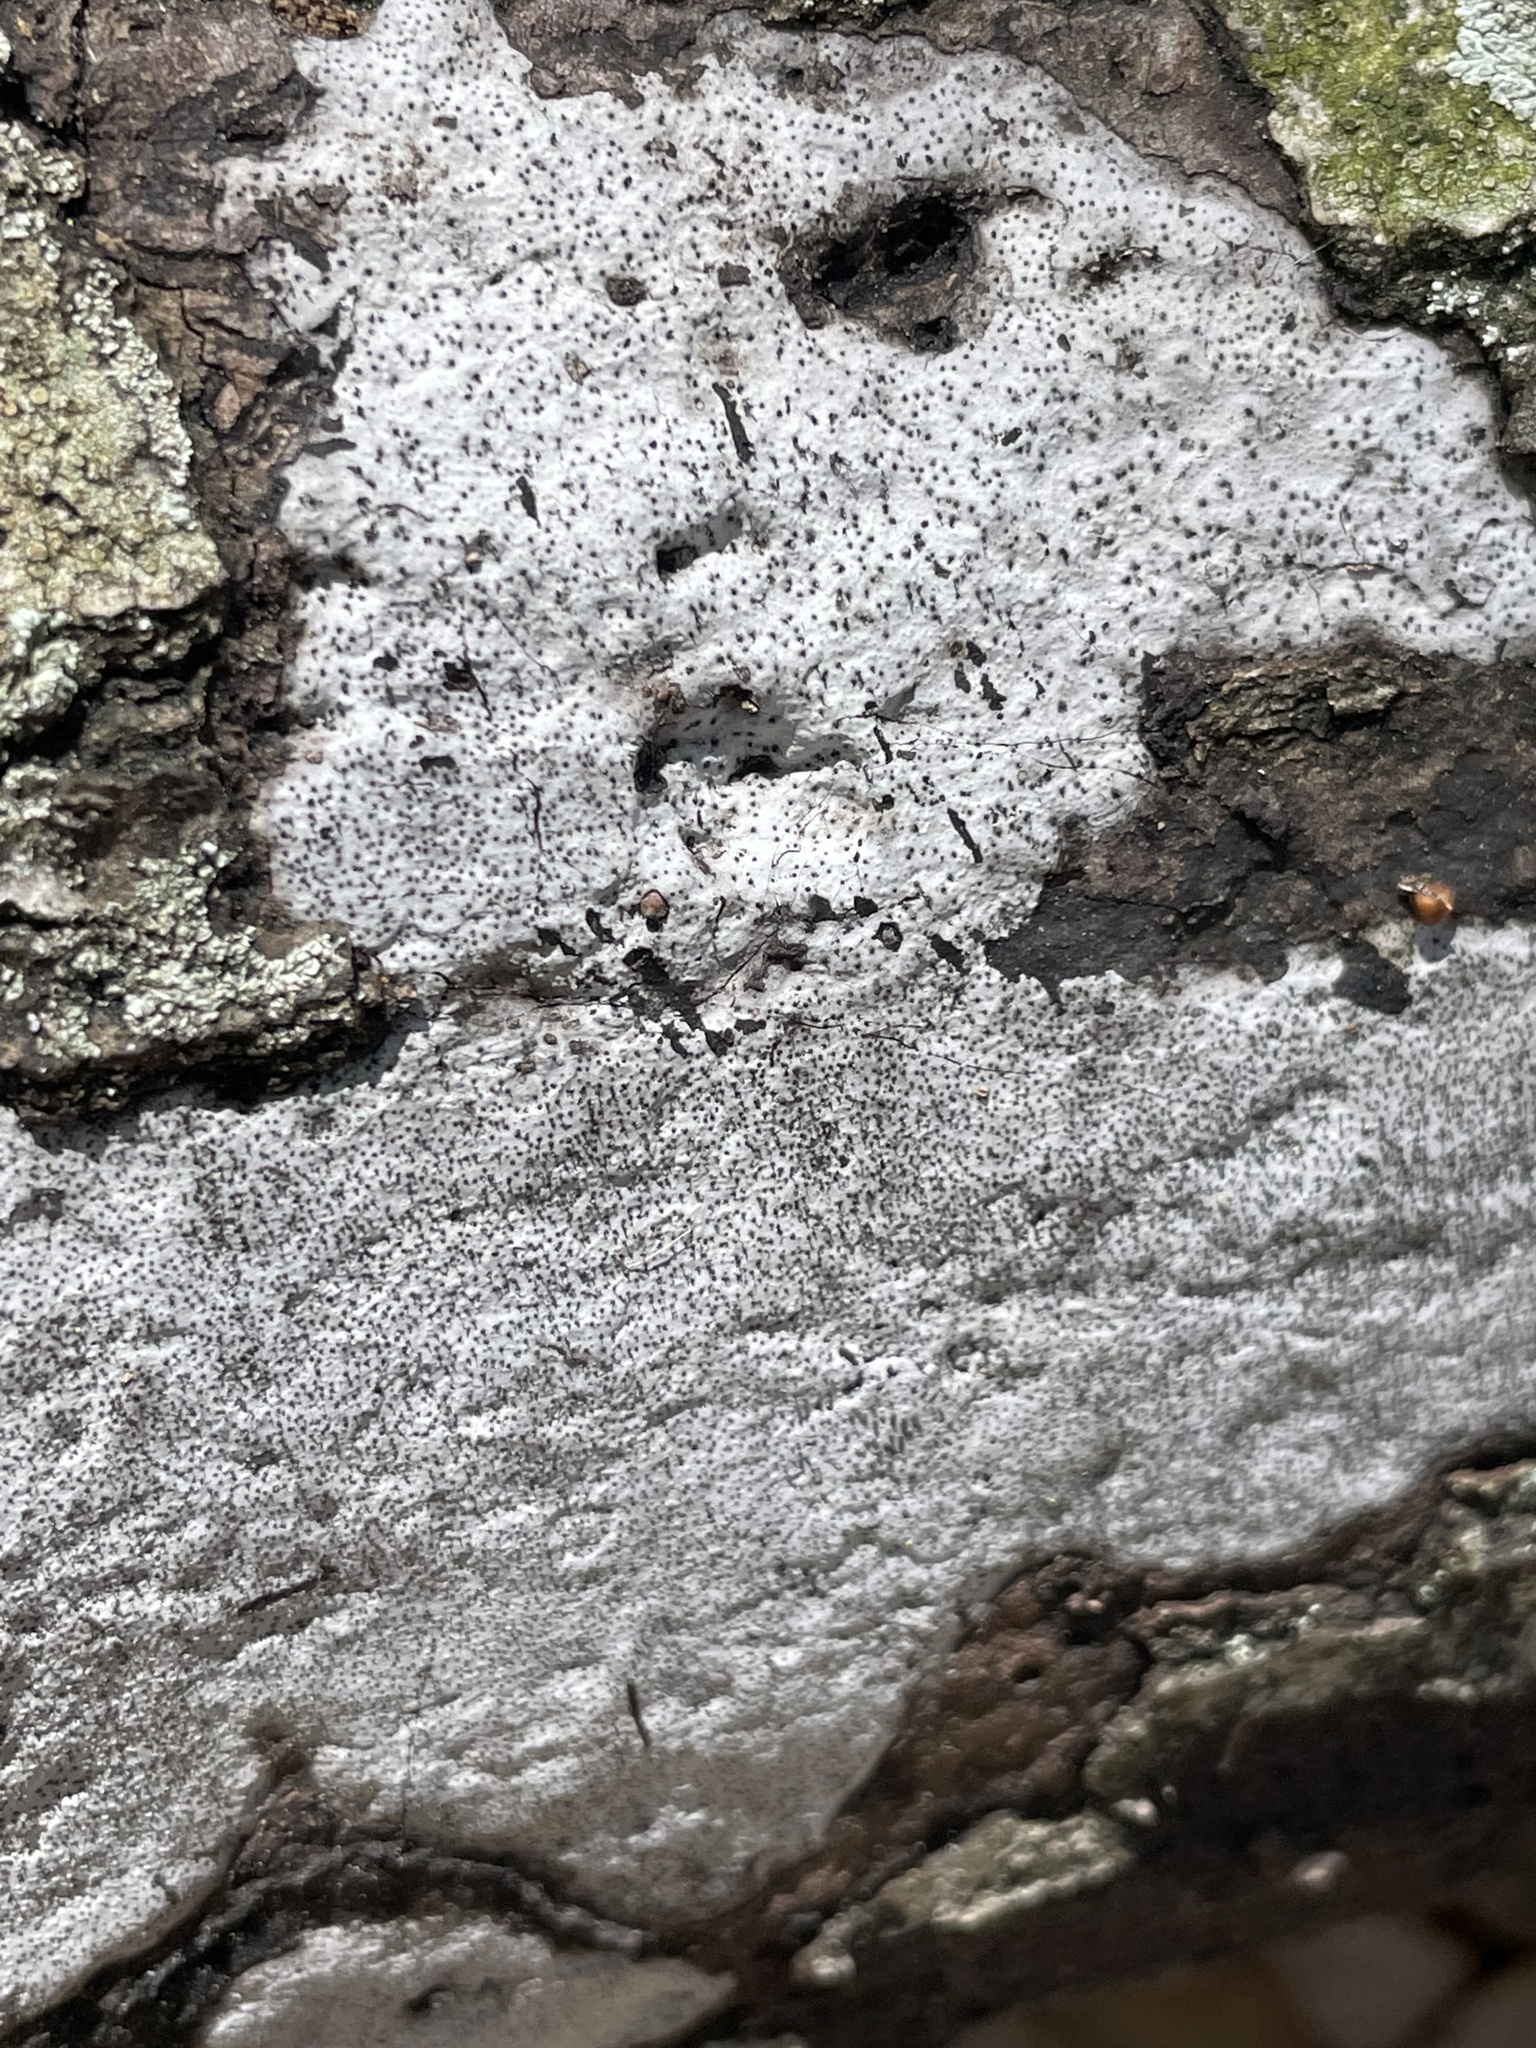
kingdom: Fungi
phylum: Ascomycota
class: Sordariomycetes
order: Xylariales
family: Graphostromataceae
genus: Biscogniauxia
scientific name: Biscogniauxia atropunctata
